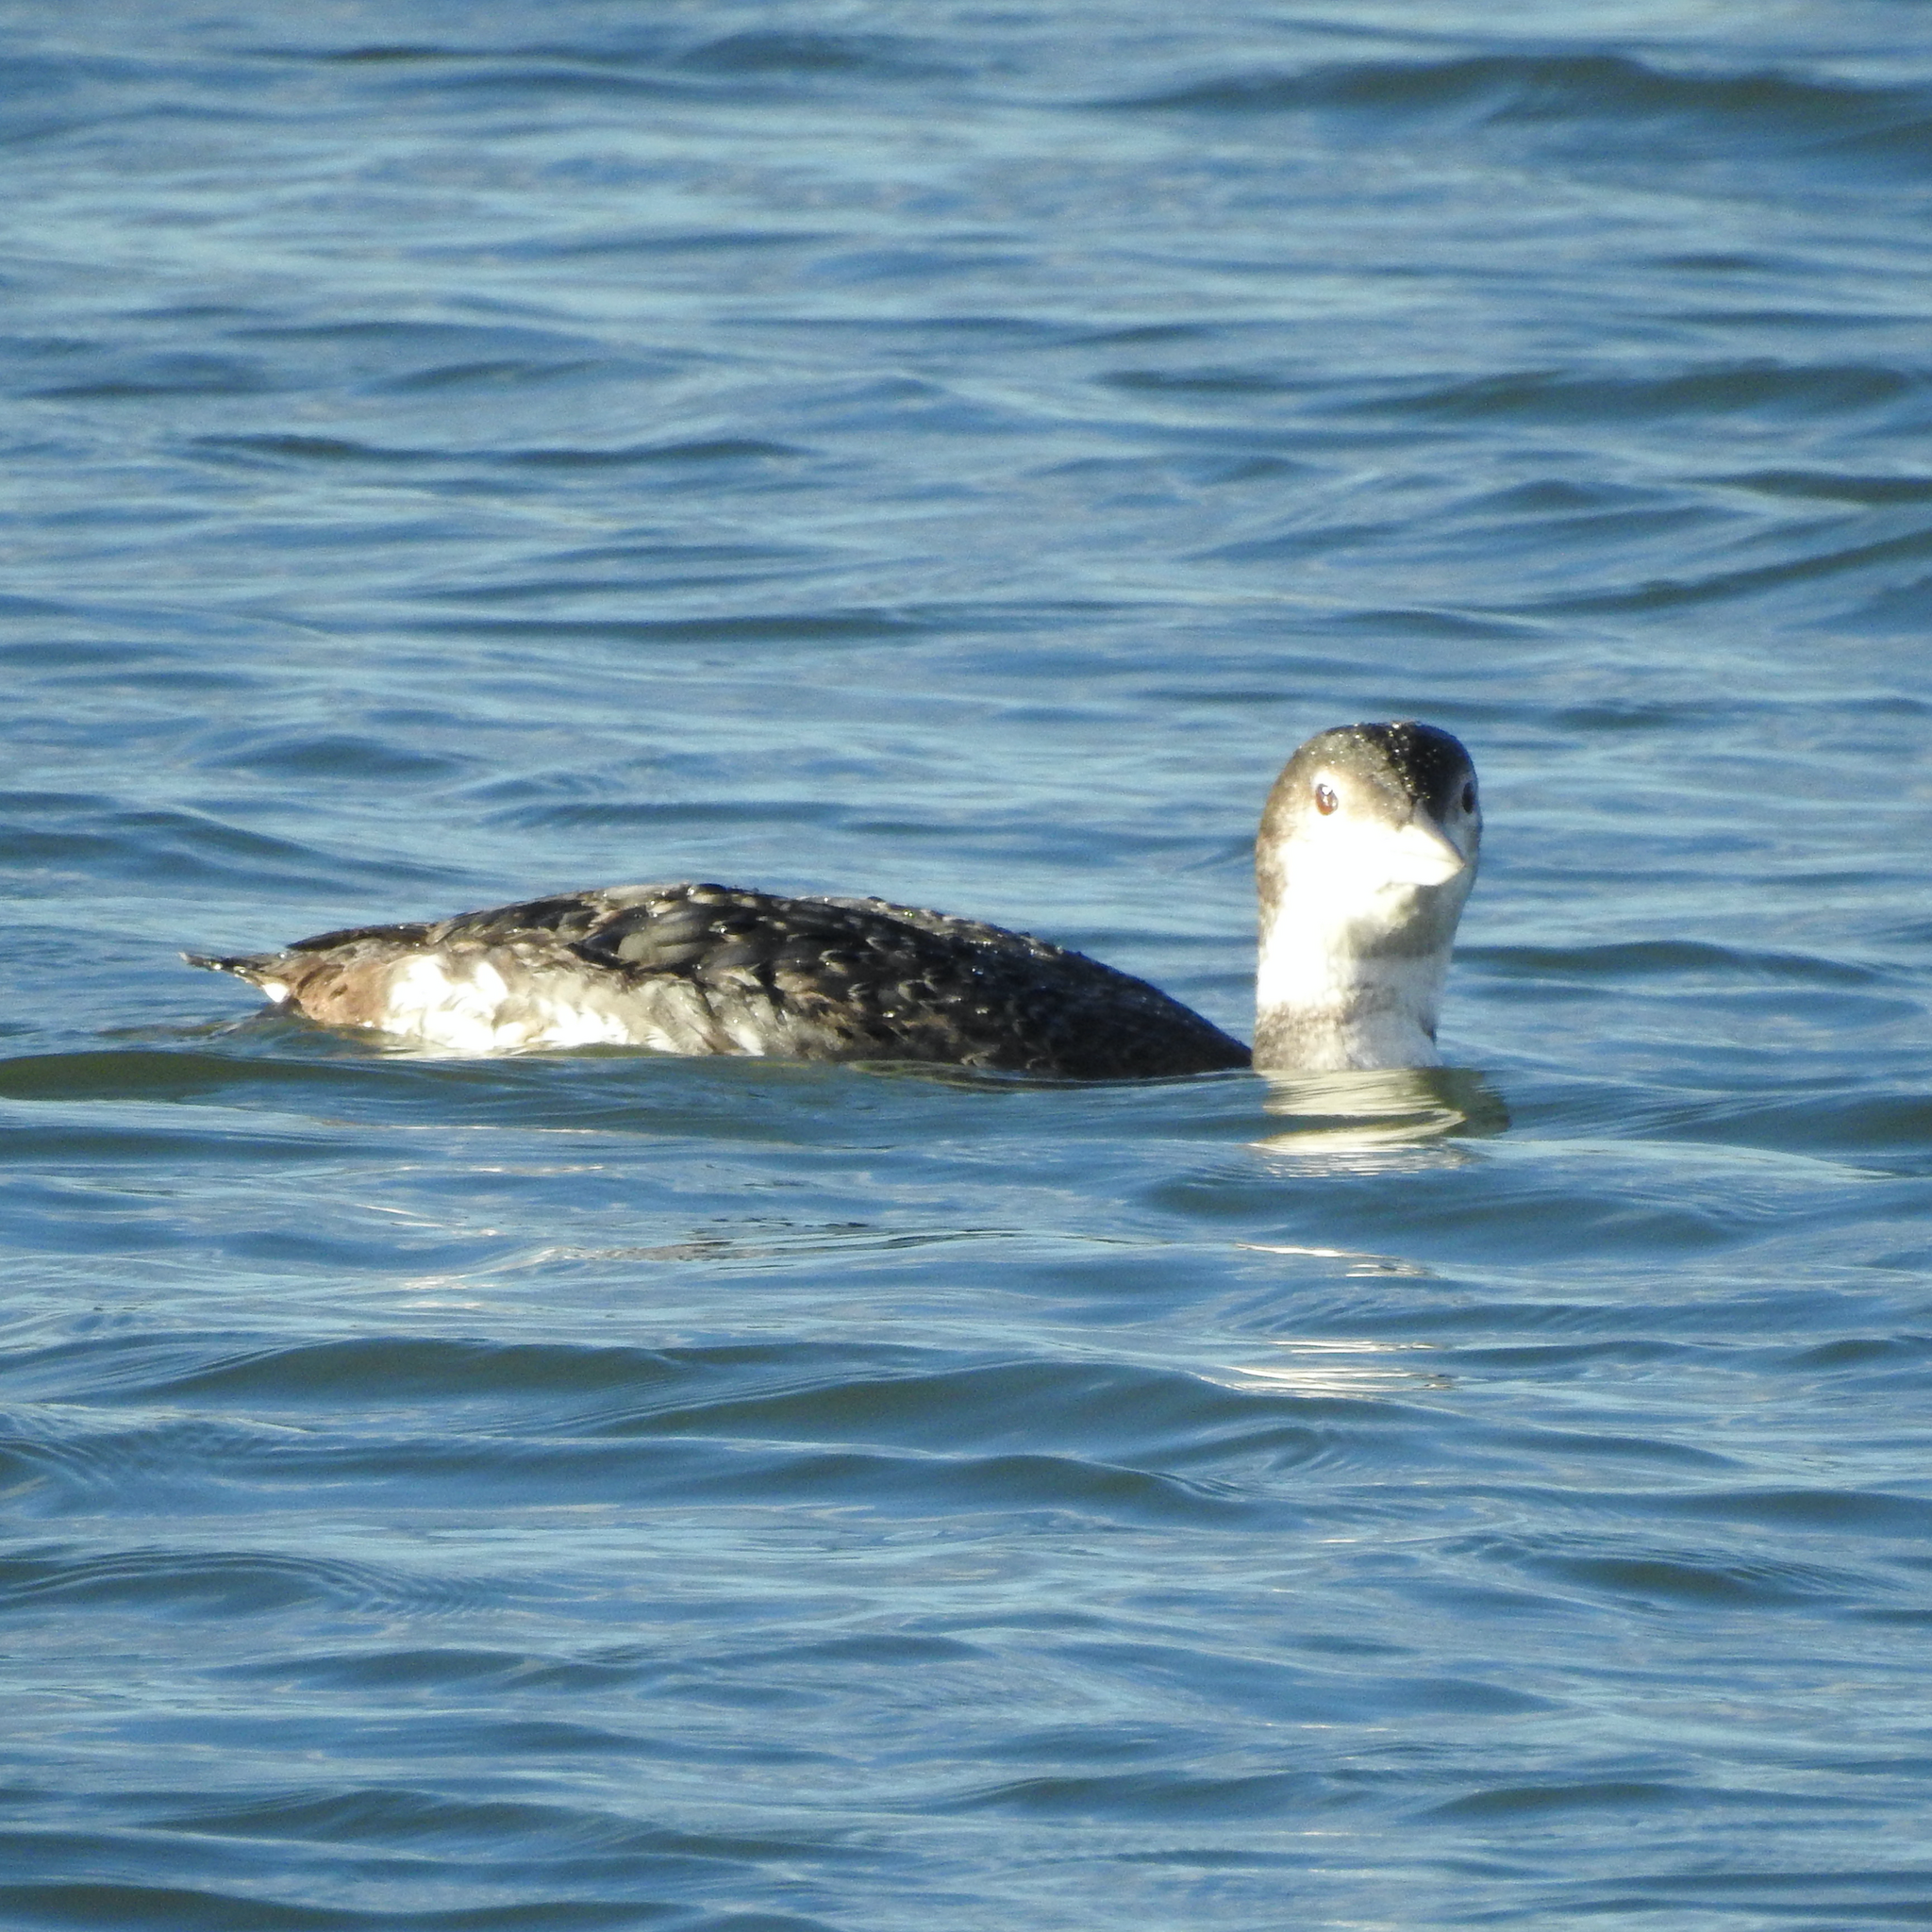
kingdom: Animalia
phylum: Chordata
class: Aves
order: Gaviiformes
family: Gaviidae
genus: Gavia
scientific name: Gavia immer
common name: Common loon
